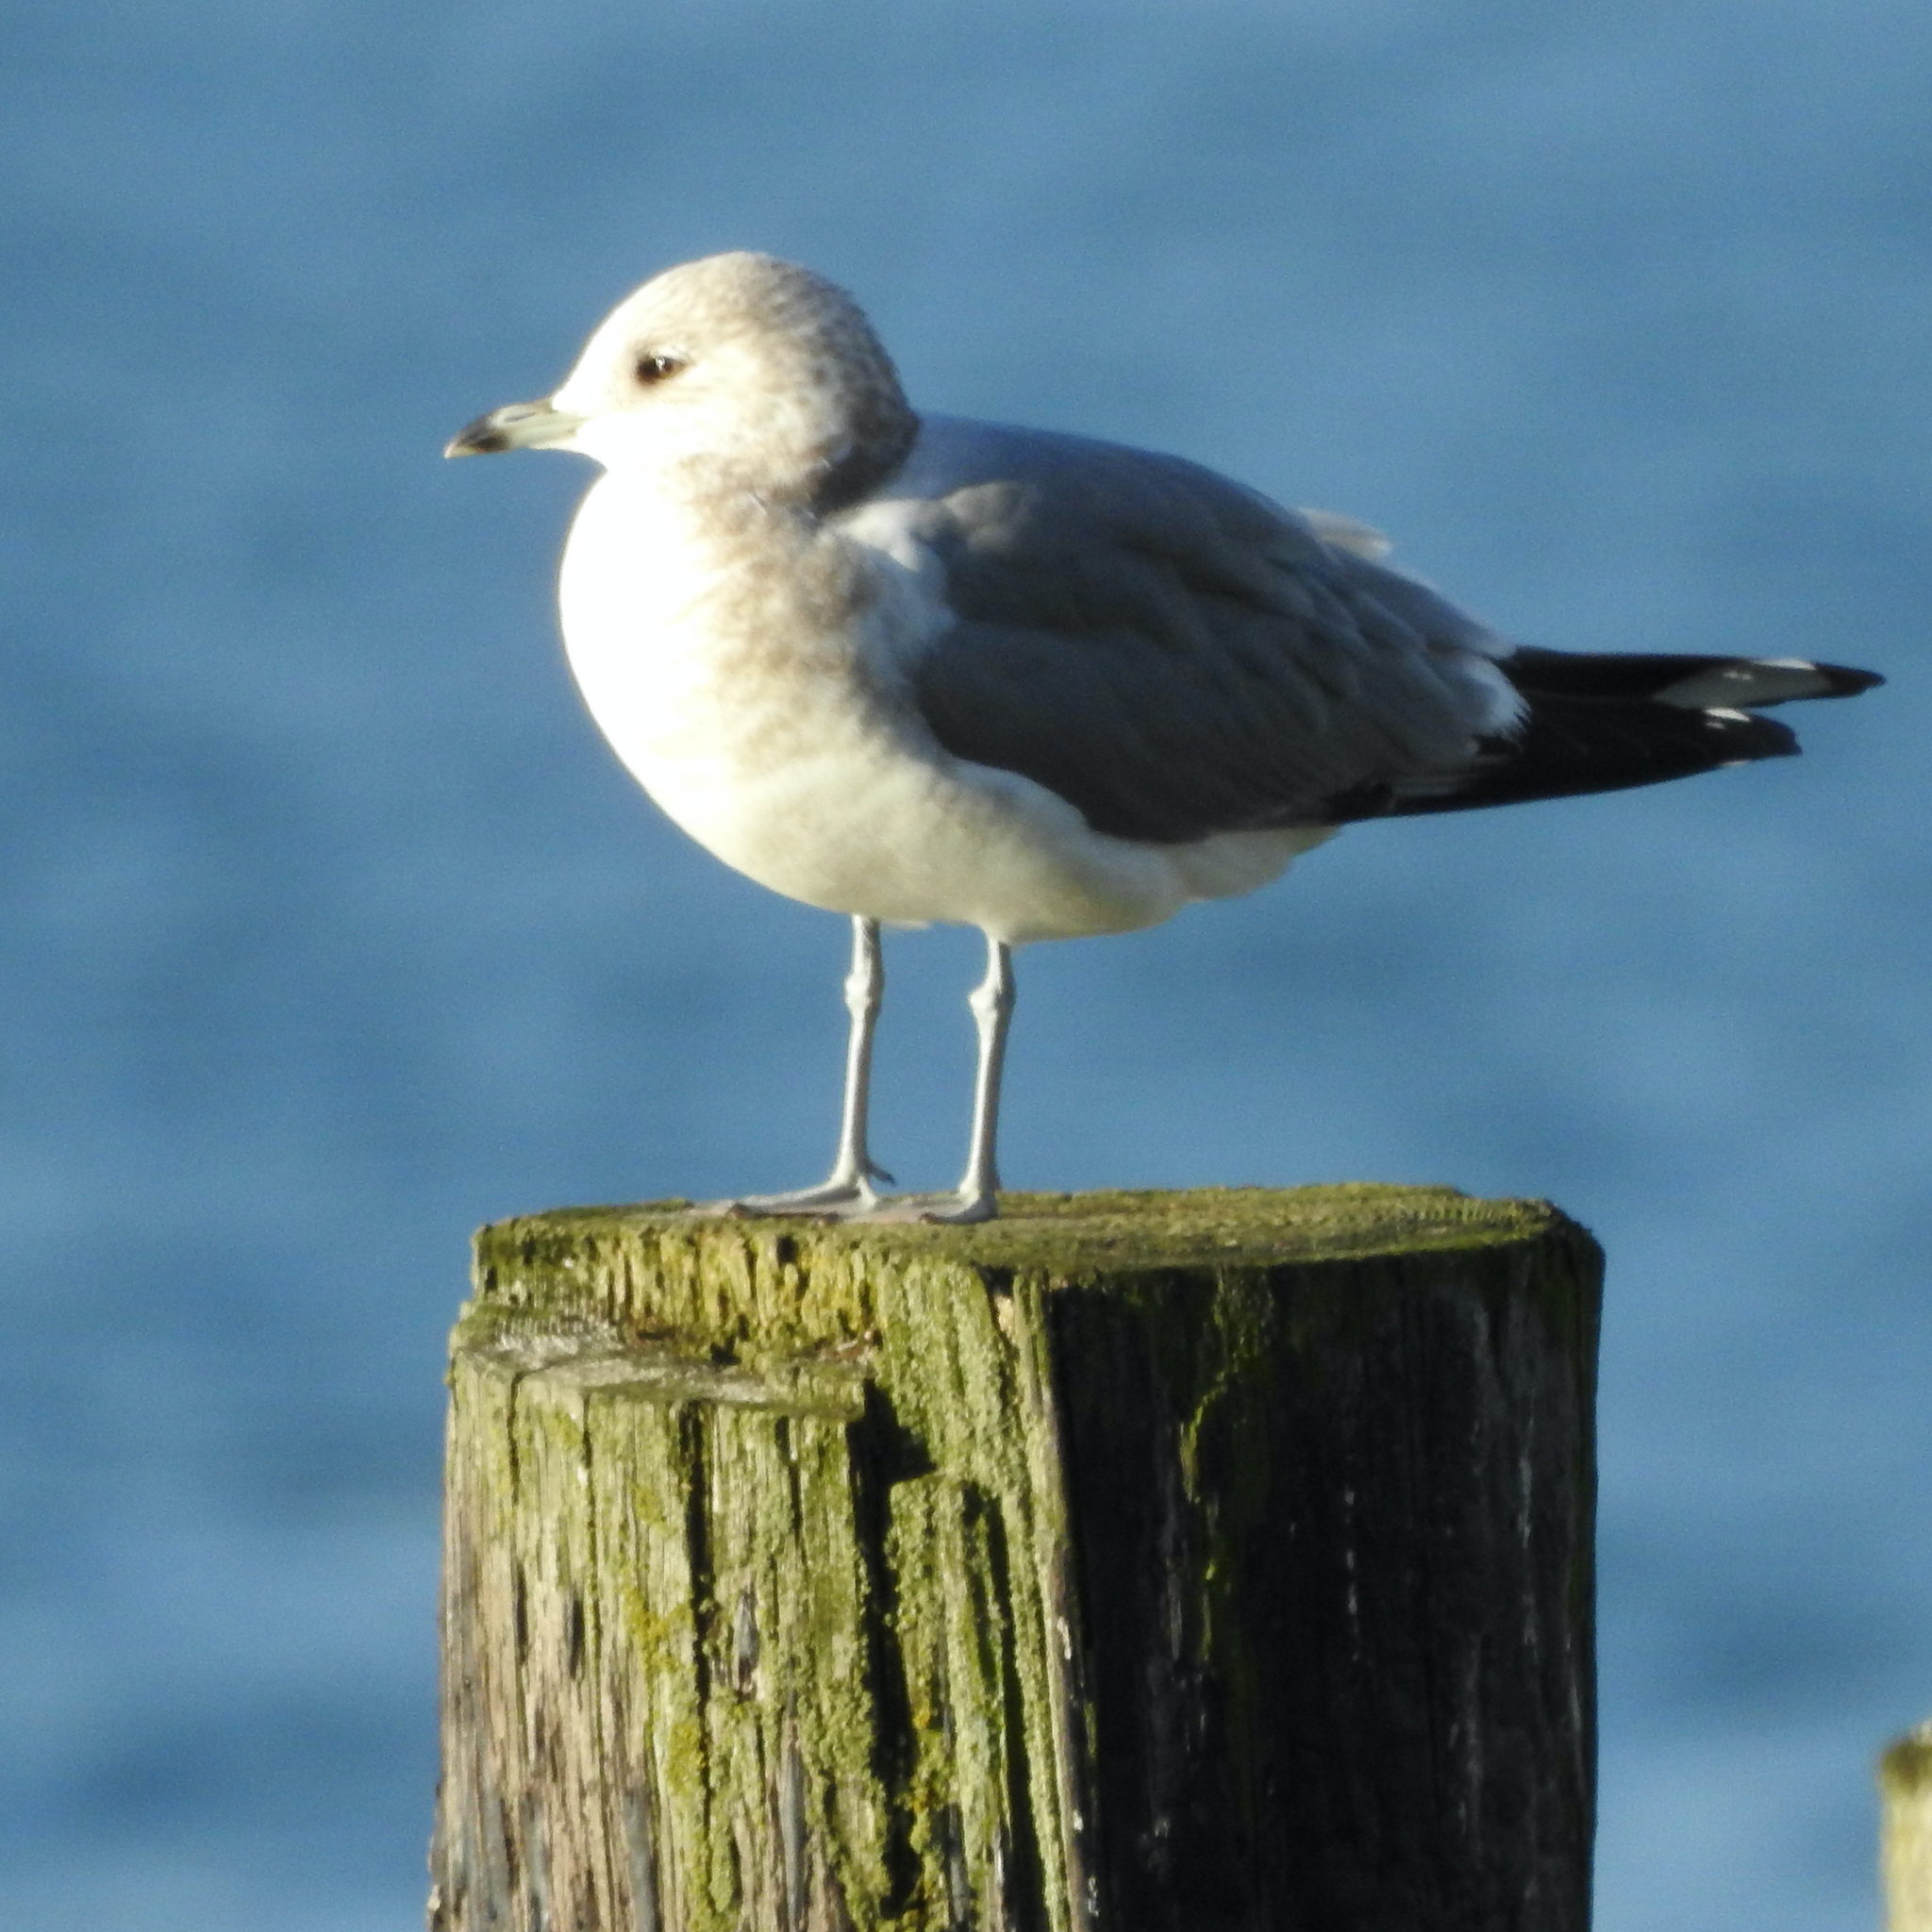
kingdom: Animalia
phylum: Chordata
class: Aves
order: Charadriiformes
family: Laridae
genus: Larus
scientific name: Larus brachyrhynchus
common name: Short-billed gull
